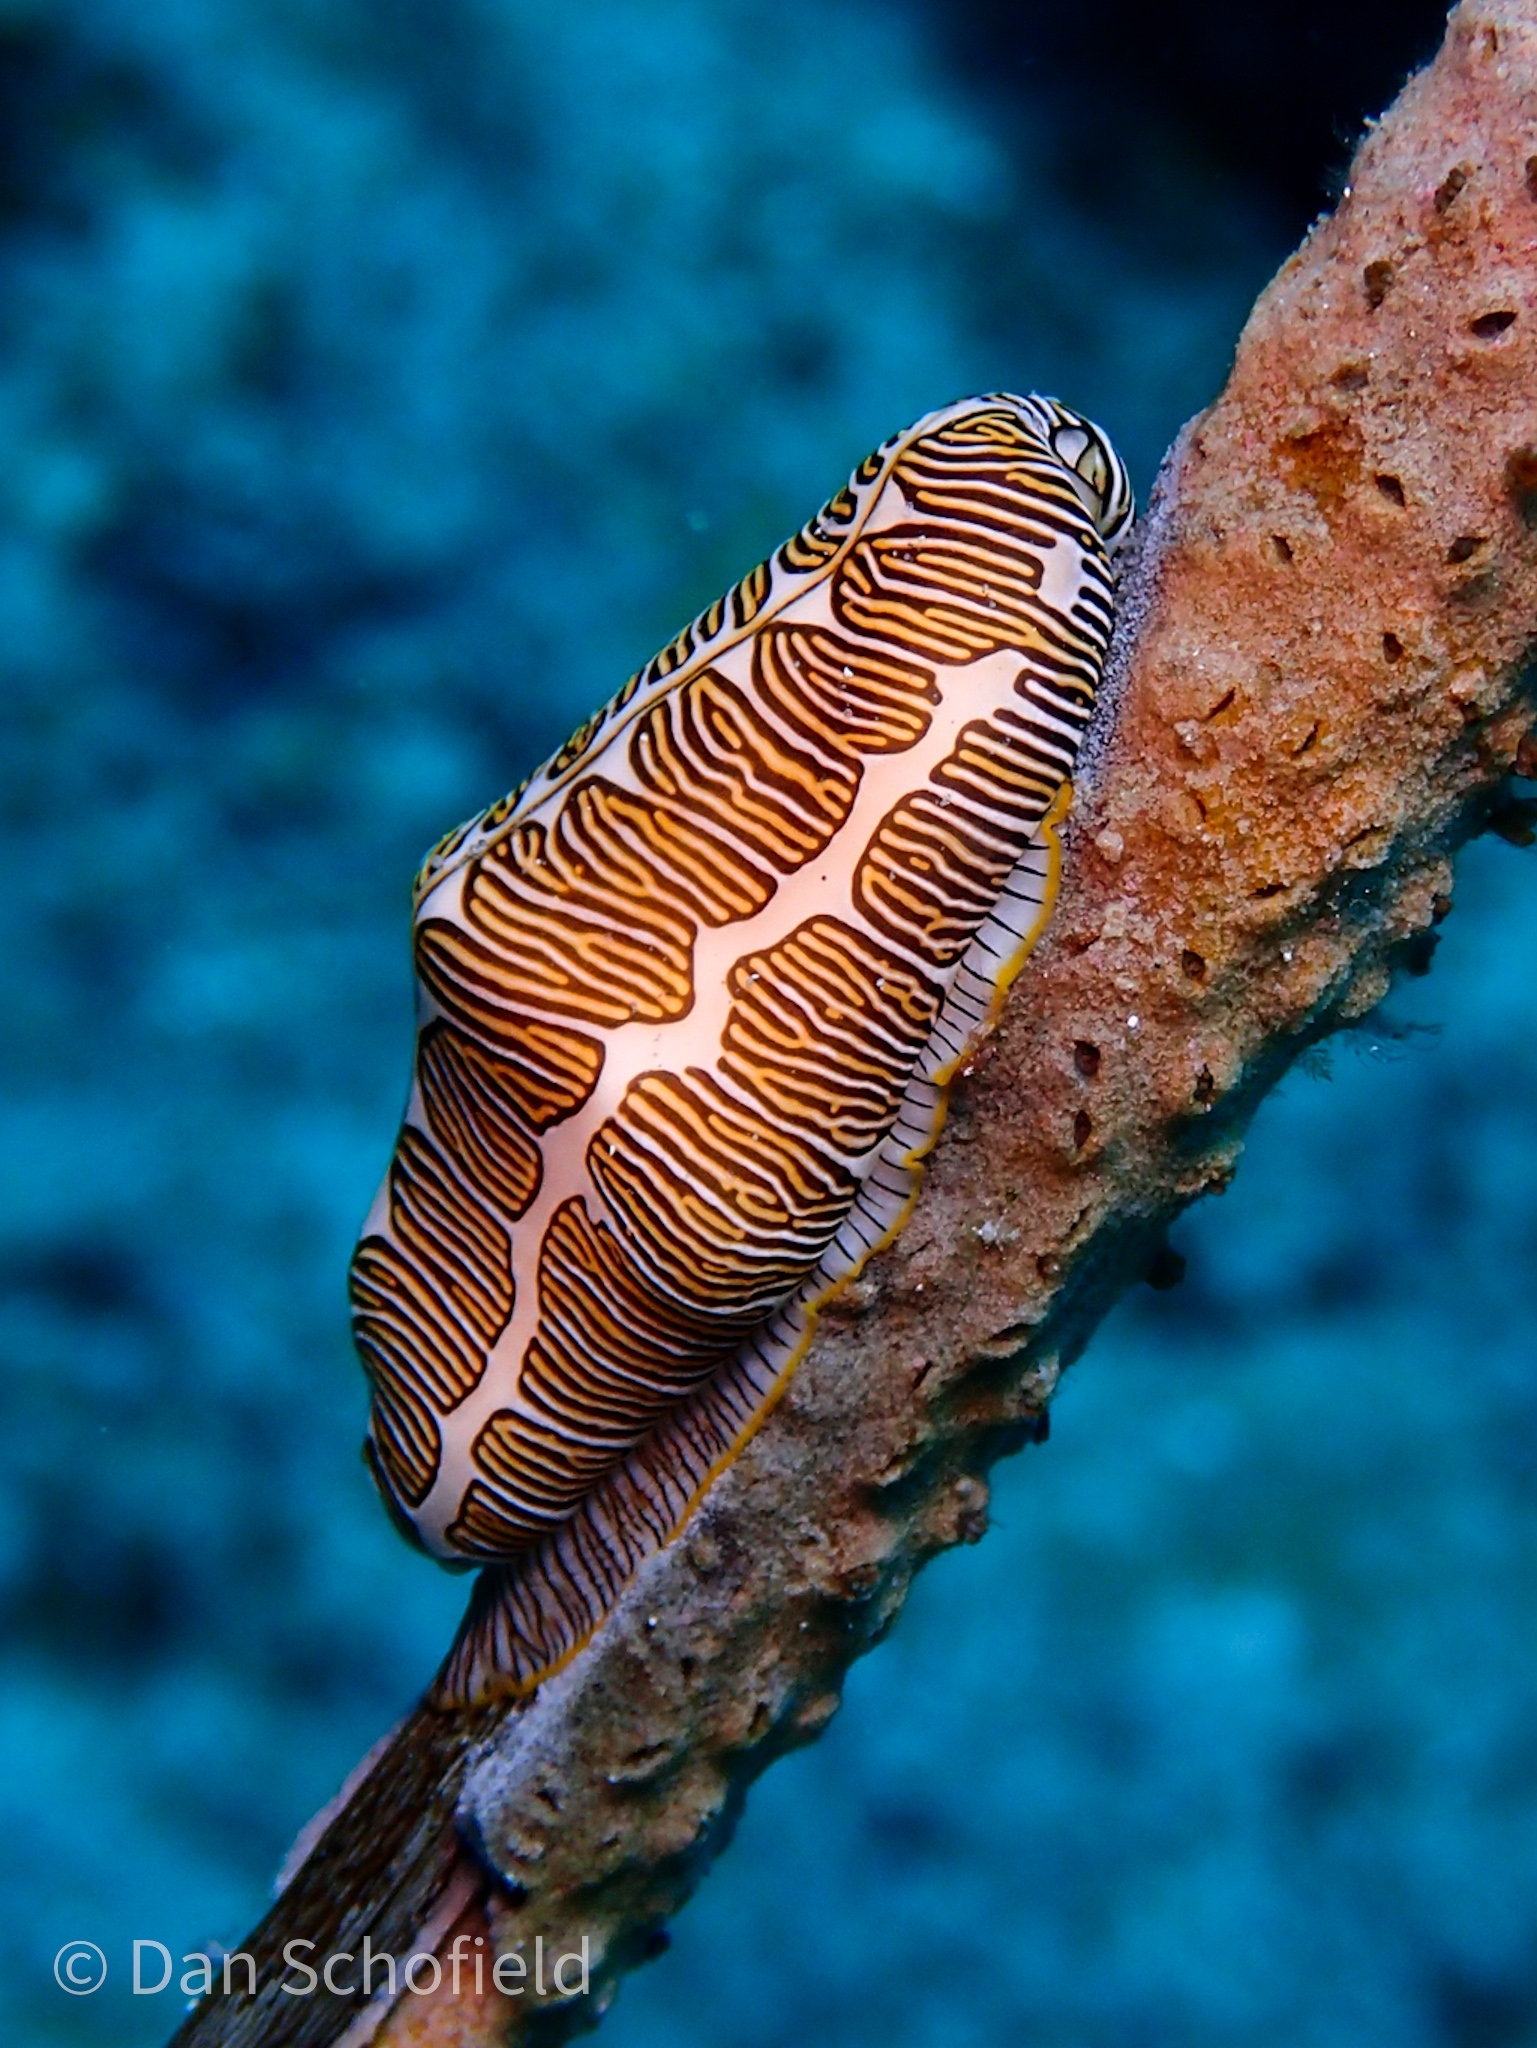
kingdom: Animalia
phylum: Mollusca
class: Gastropoda
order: Littorinimorpha
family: Ovulidae
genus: Cyphoma
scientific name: Cyphoma signatum
